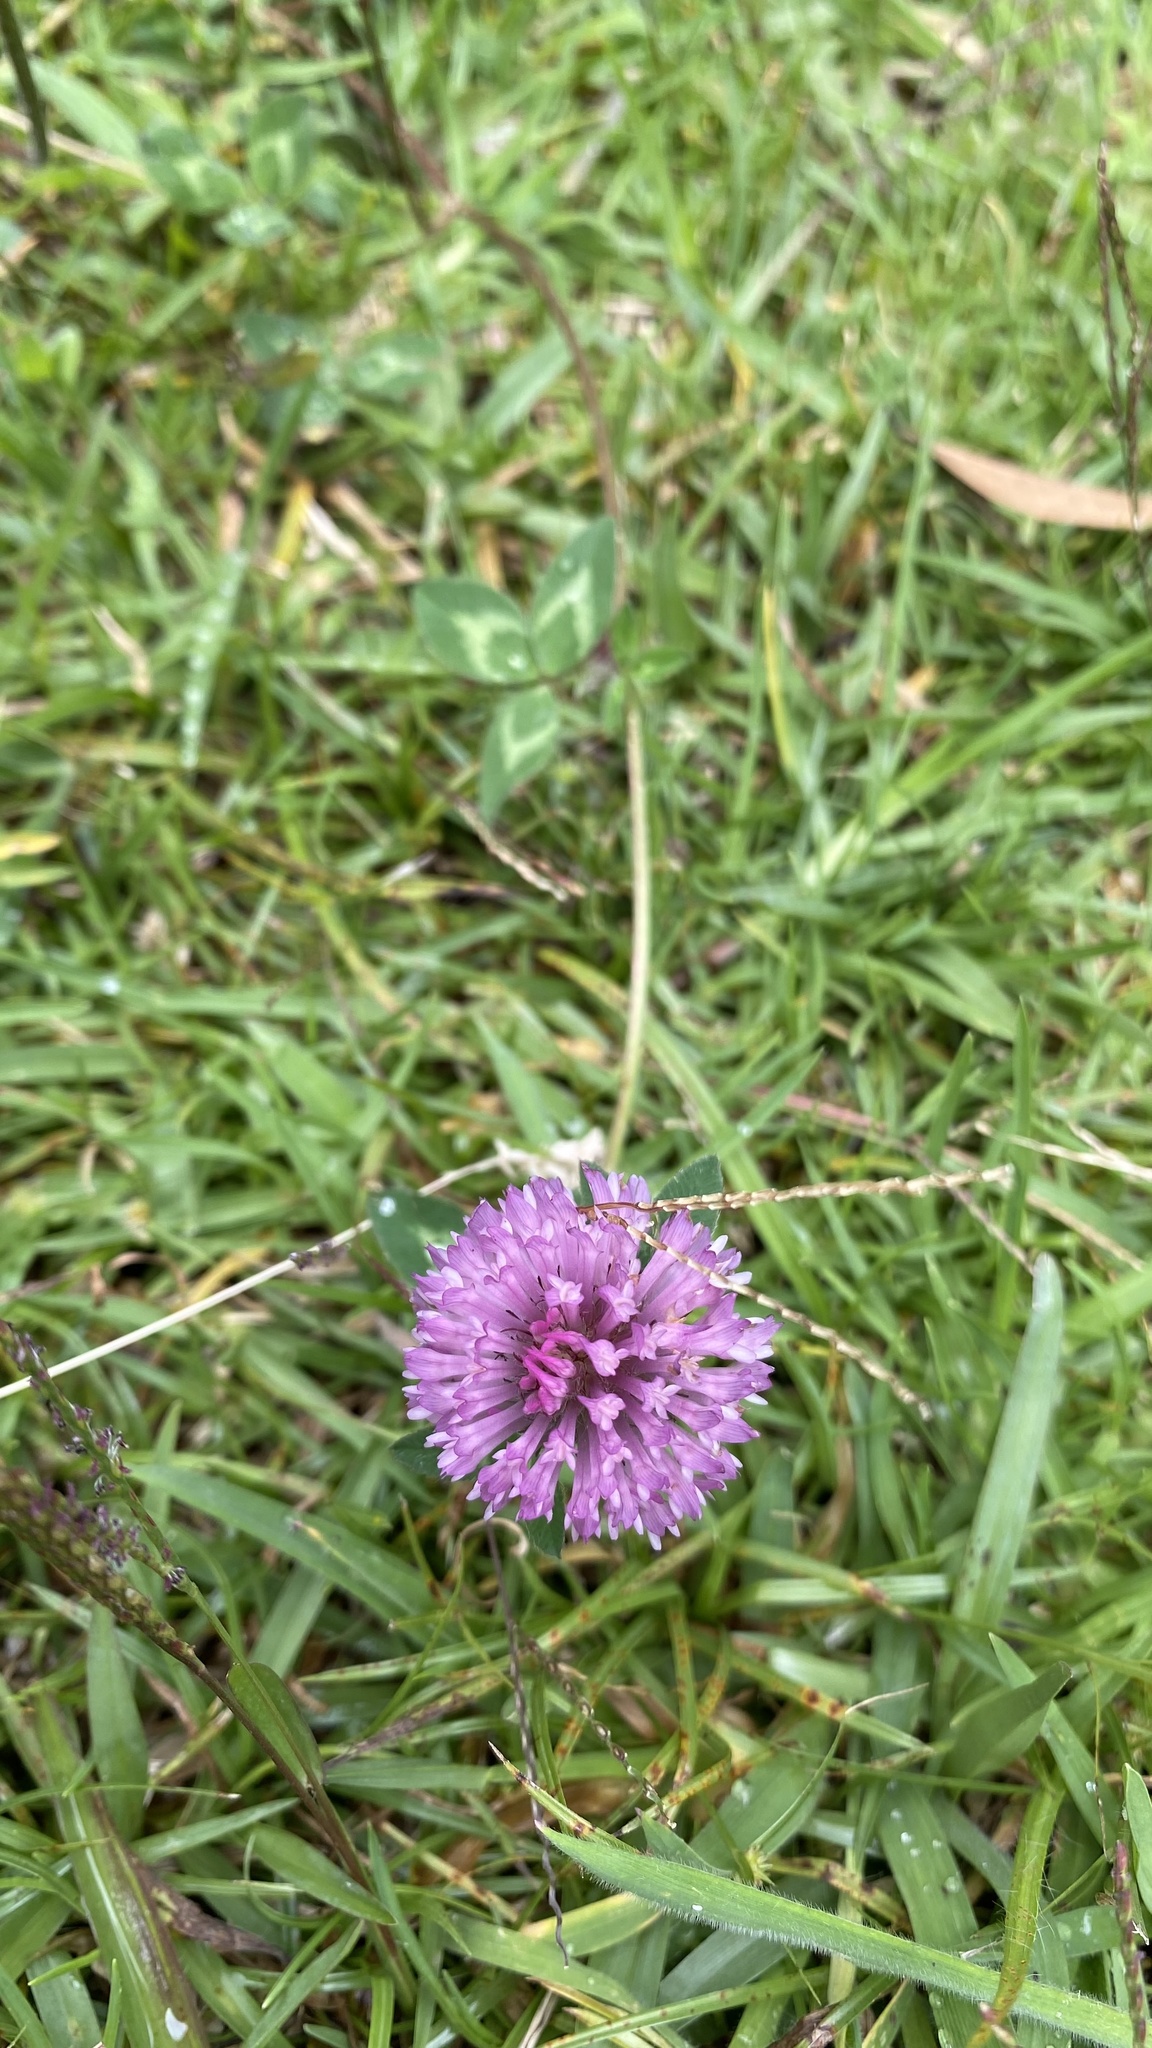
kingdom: Plantae
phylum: Tracheophyta
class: Magnoliopsida
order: Fabales
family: Fabaceae
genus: Trifolium
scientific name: Trifolium pratense
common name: Red clover
